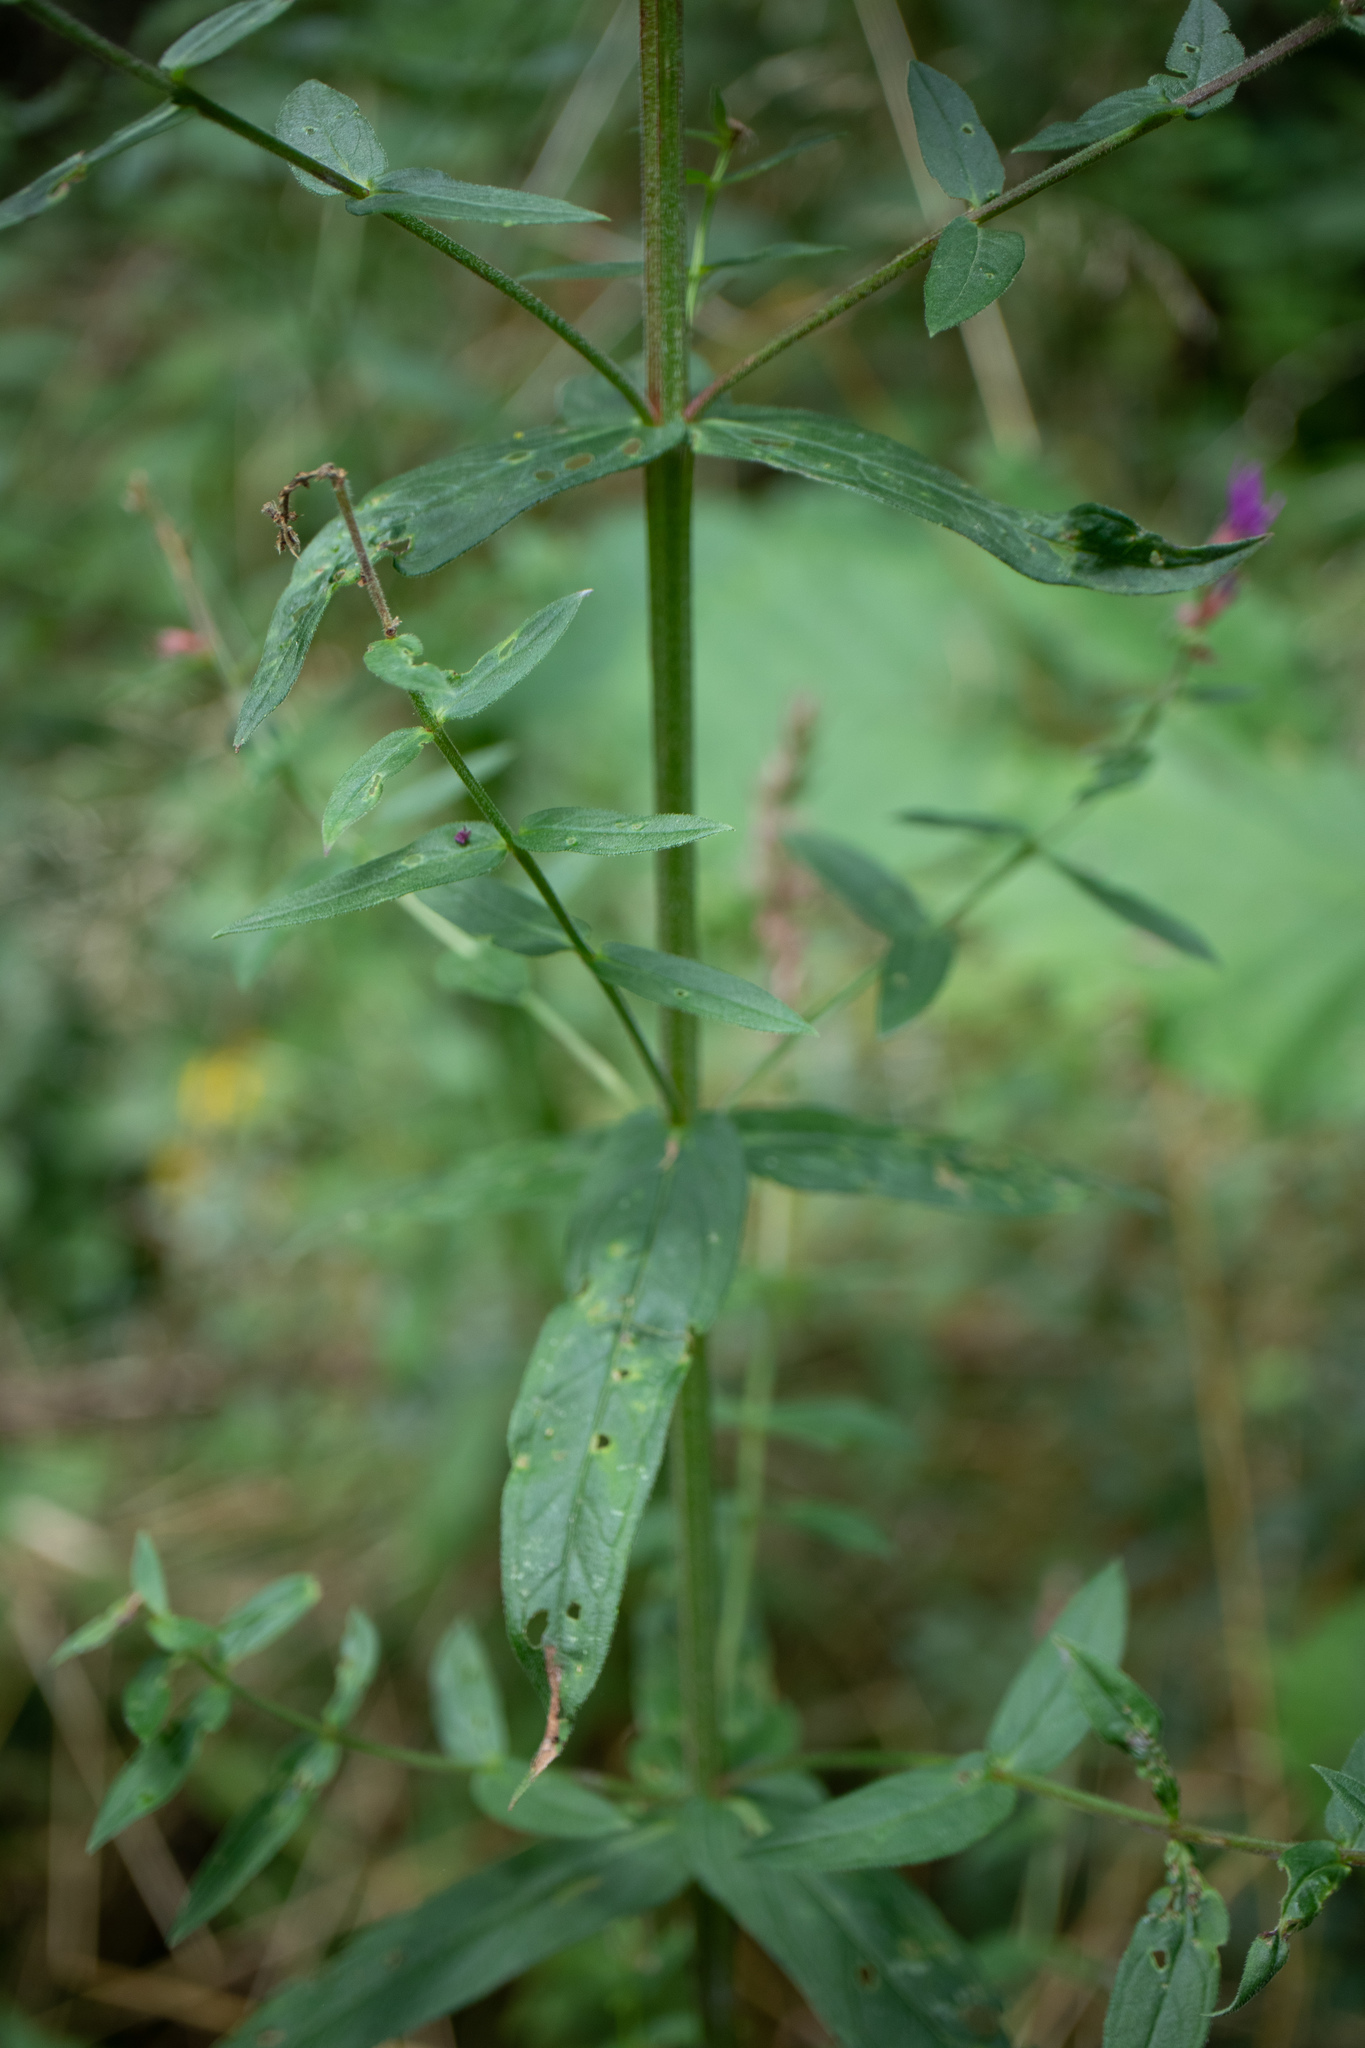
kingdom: Plantae
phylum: Tracheophyta
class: Magnoliopsida
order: Myrtales
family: Lythraceae
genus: Lythrum
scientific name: Lythrum salicaria
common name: Purple loosestrife
